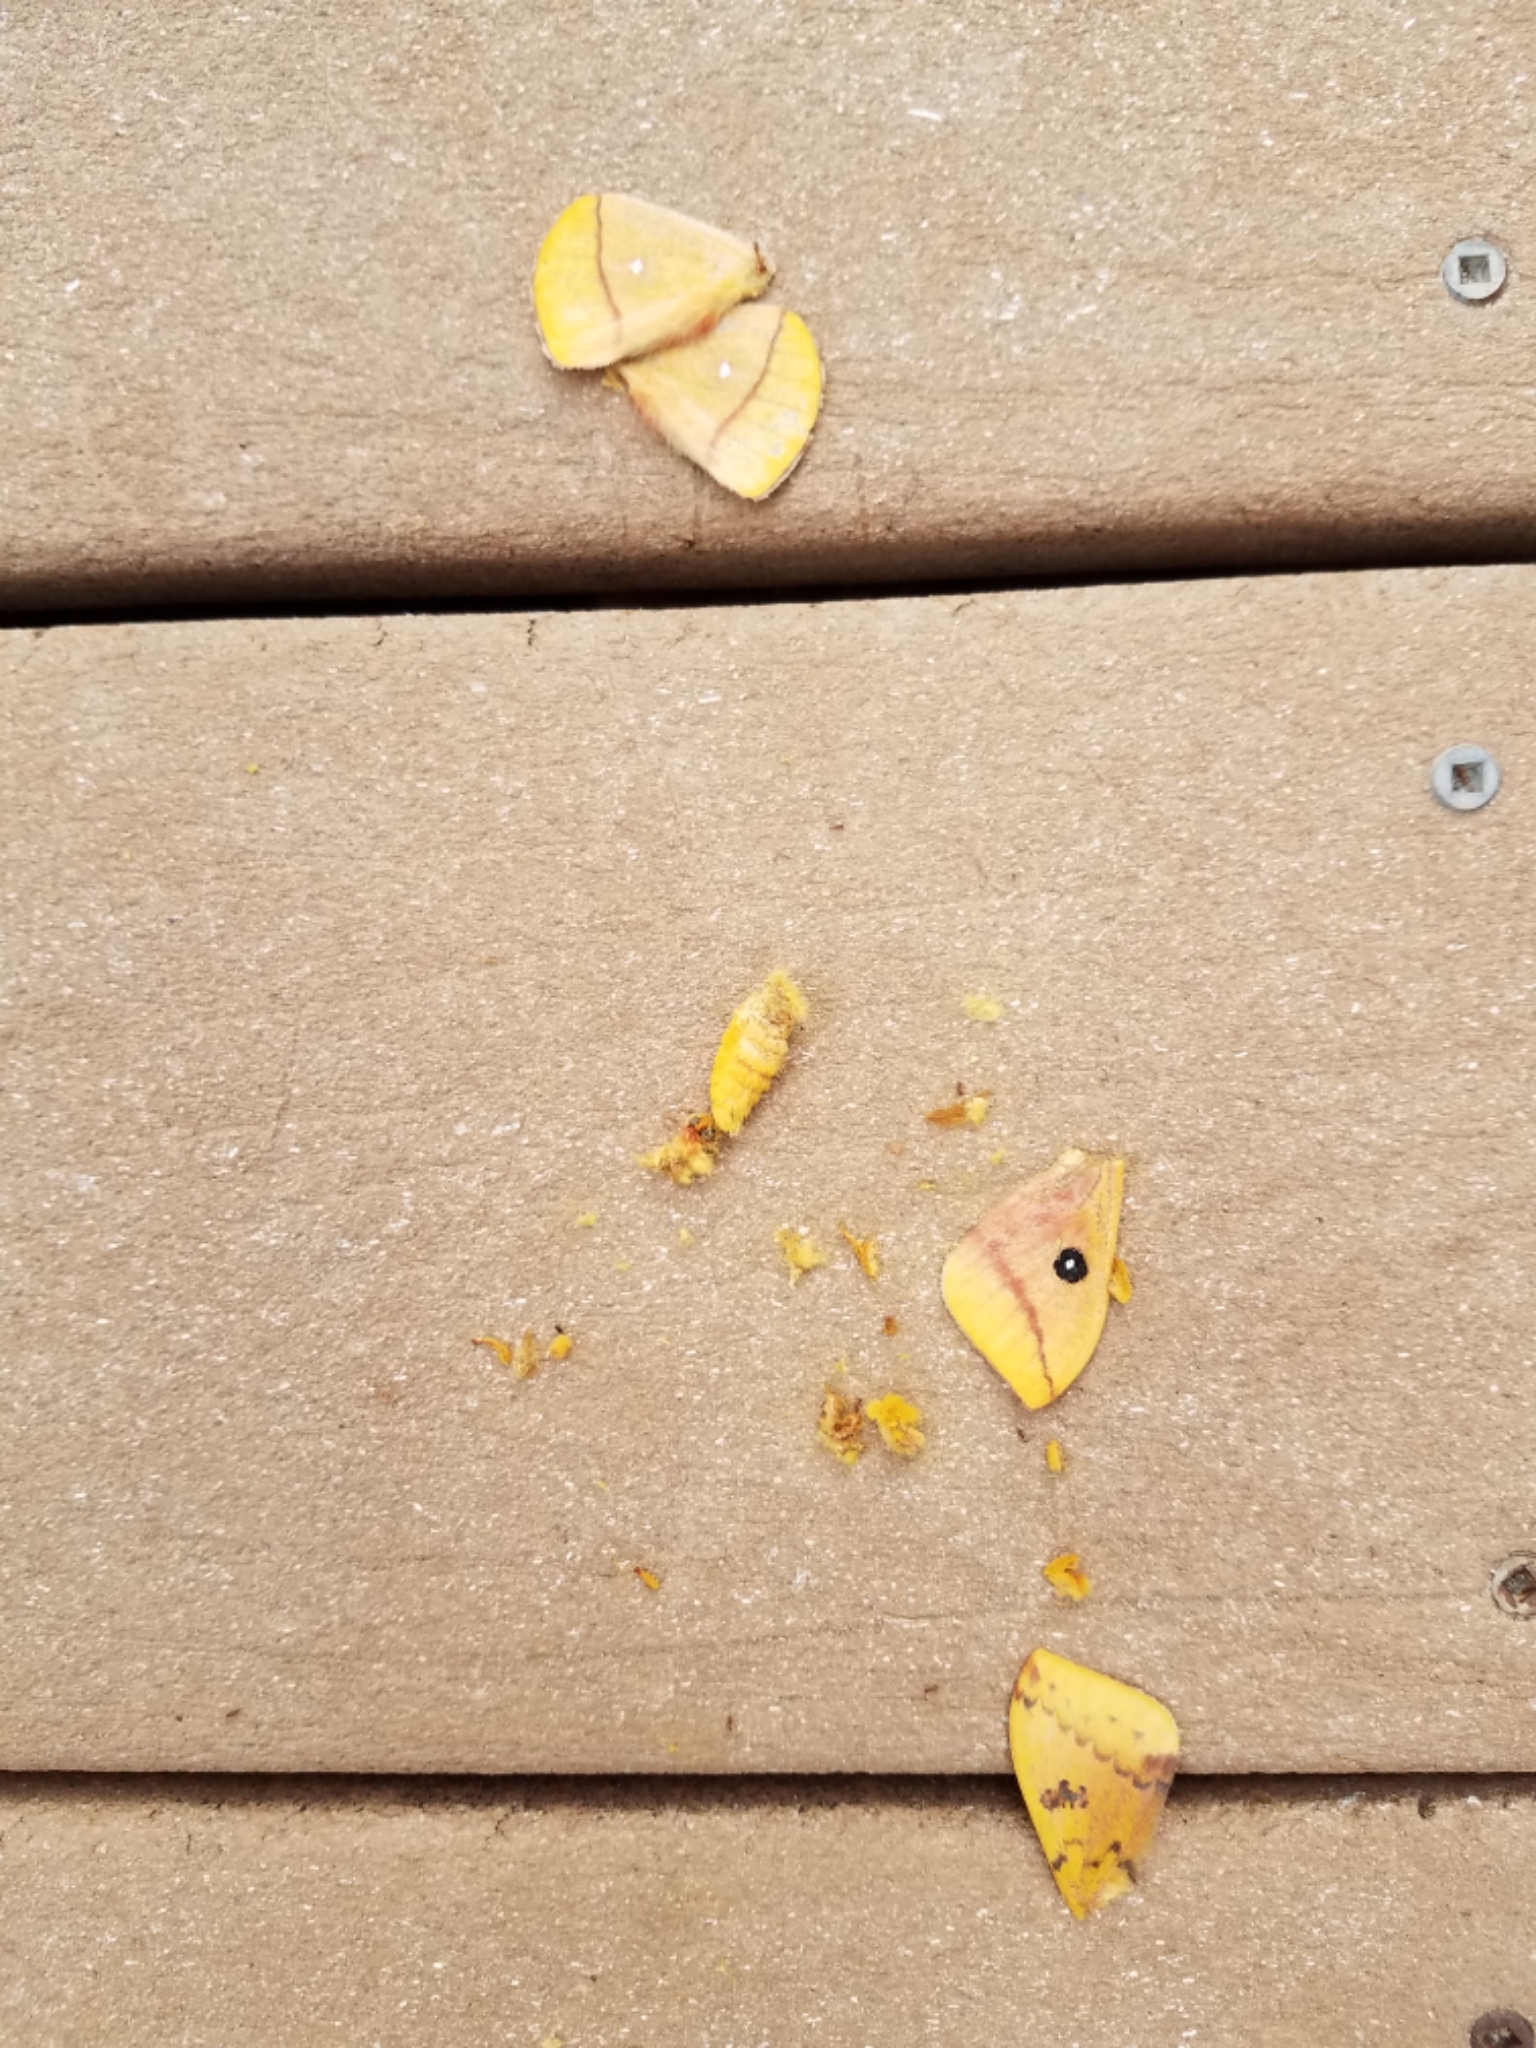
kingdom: Animalia
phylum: Arthropoda
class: Insecta
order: Lepidoptera
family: Saturniidae
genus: Automeris
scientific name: Automeris io
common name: Io moth
